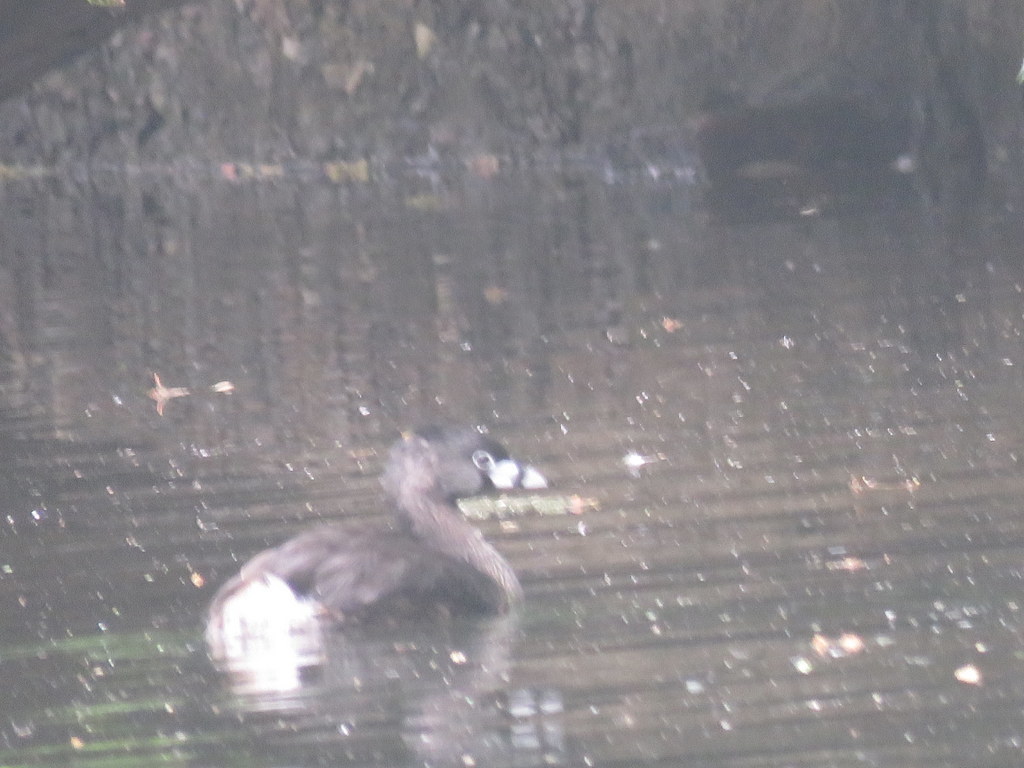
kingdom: Animalia
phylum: Chordata
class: Aves
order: Podicipediformes
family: Podicipedidae
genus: Podilymbus
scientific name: Podilymbus podiceps
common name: Pied-billed grebe
